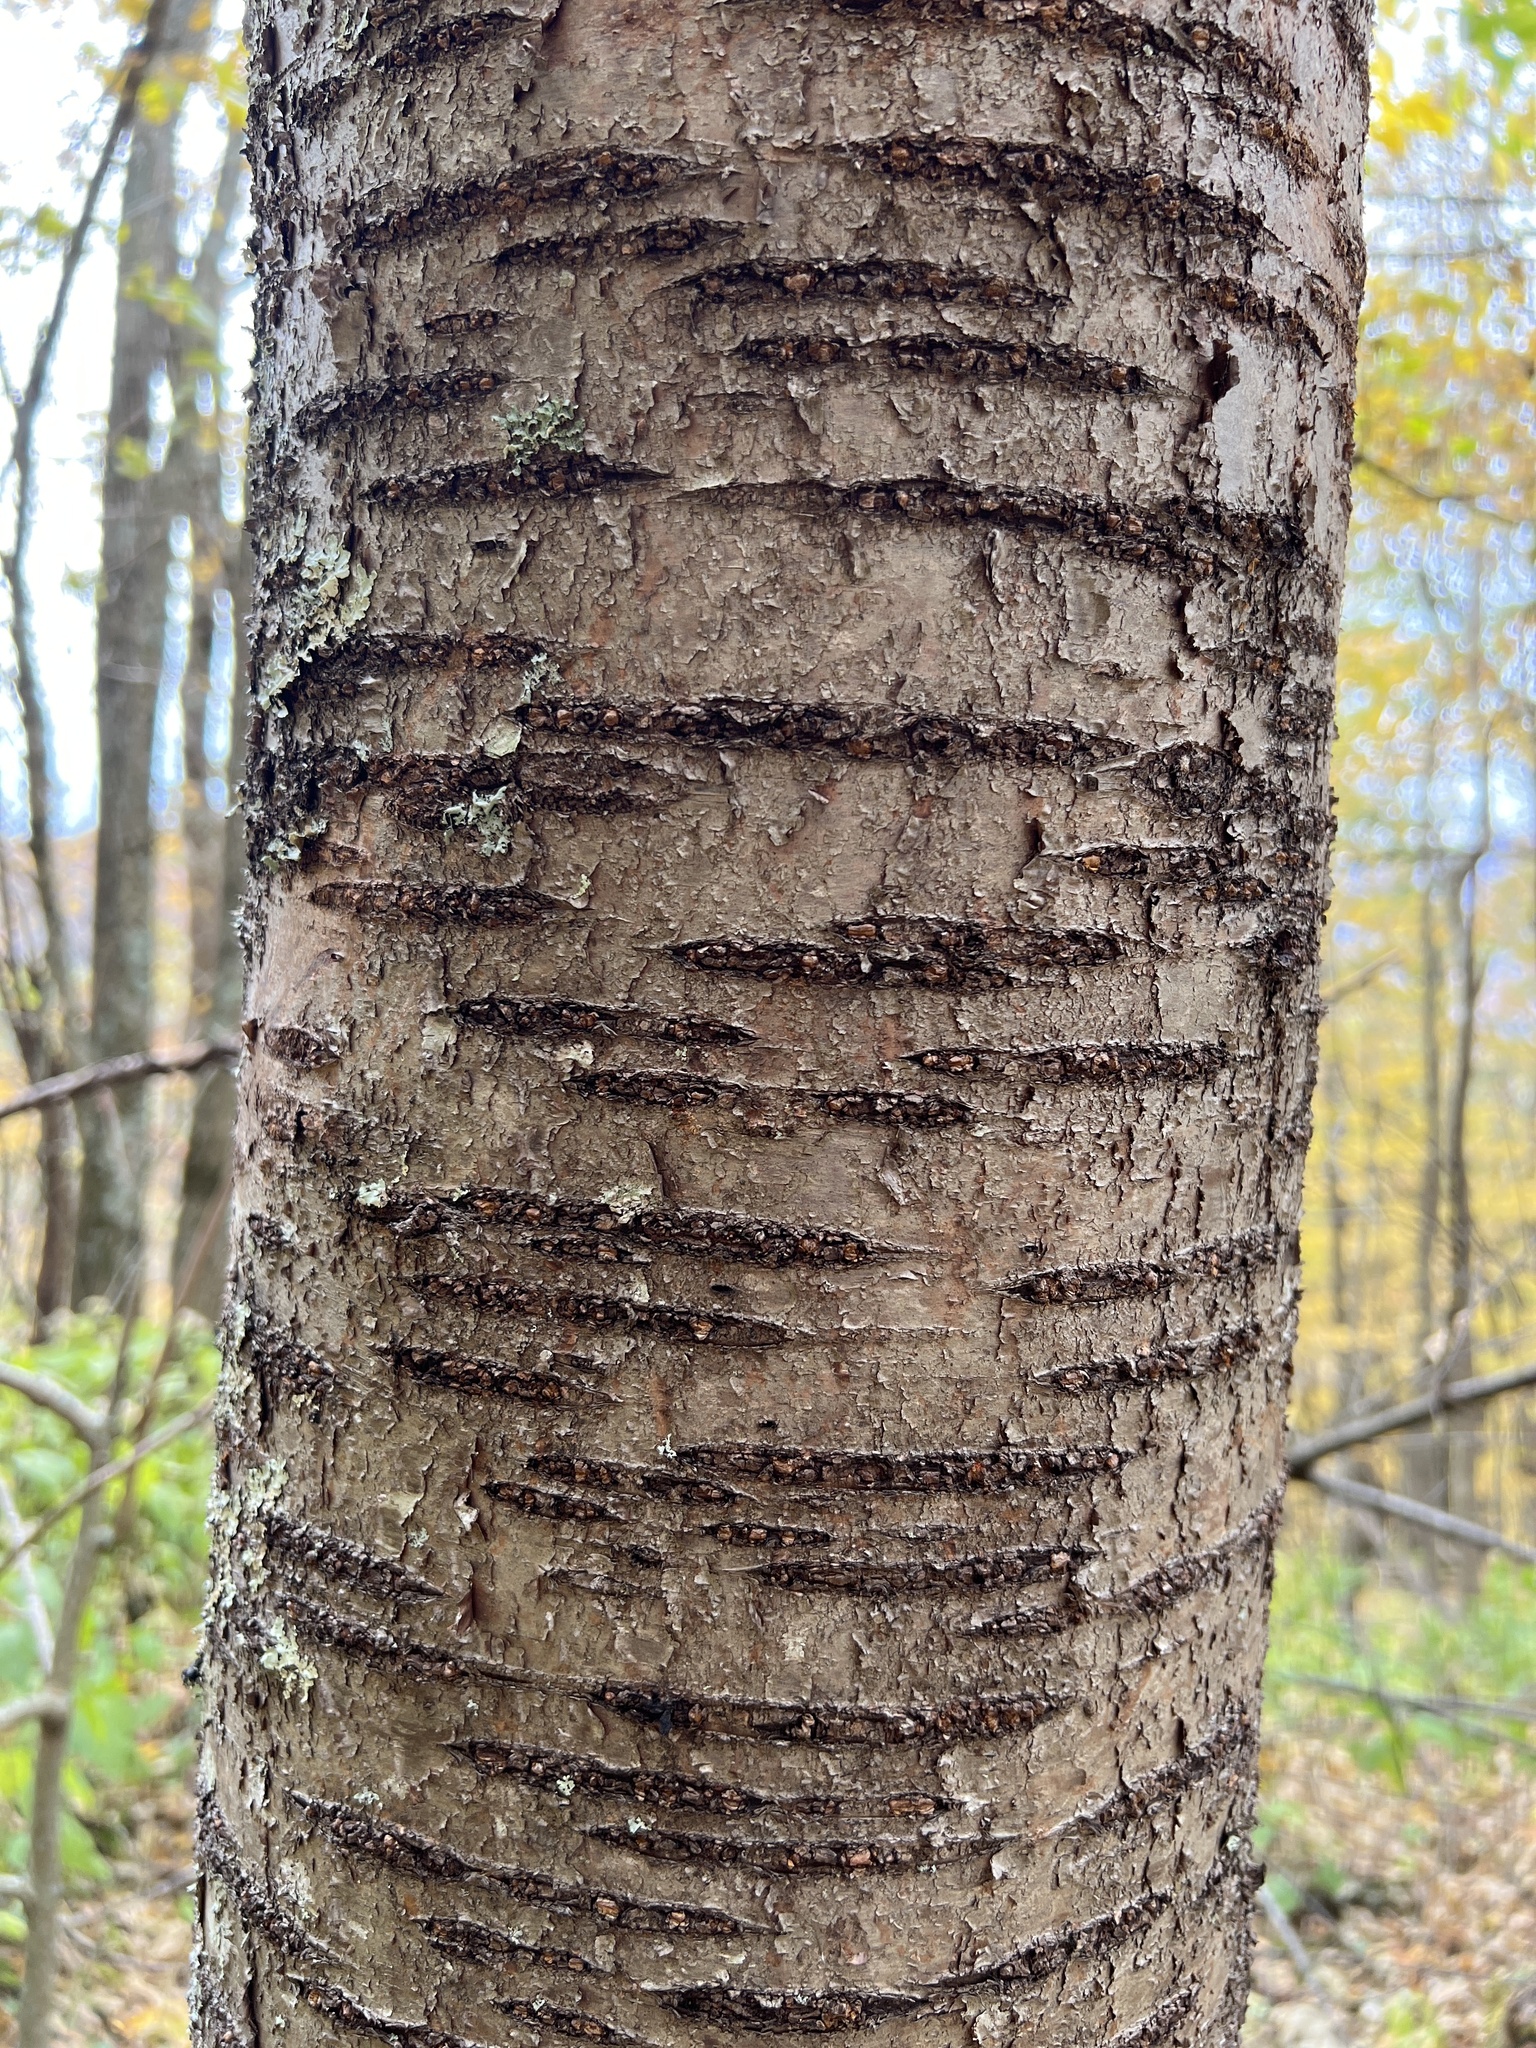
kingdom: Plantae
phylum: Tracheophyta
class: Magnoliopsida
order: Rosales
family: Rosaceae
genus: Prunus
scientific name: Prunus pensylvanica
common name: Pin cherry
